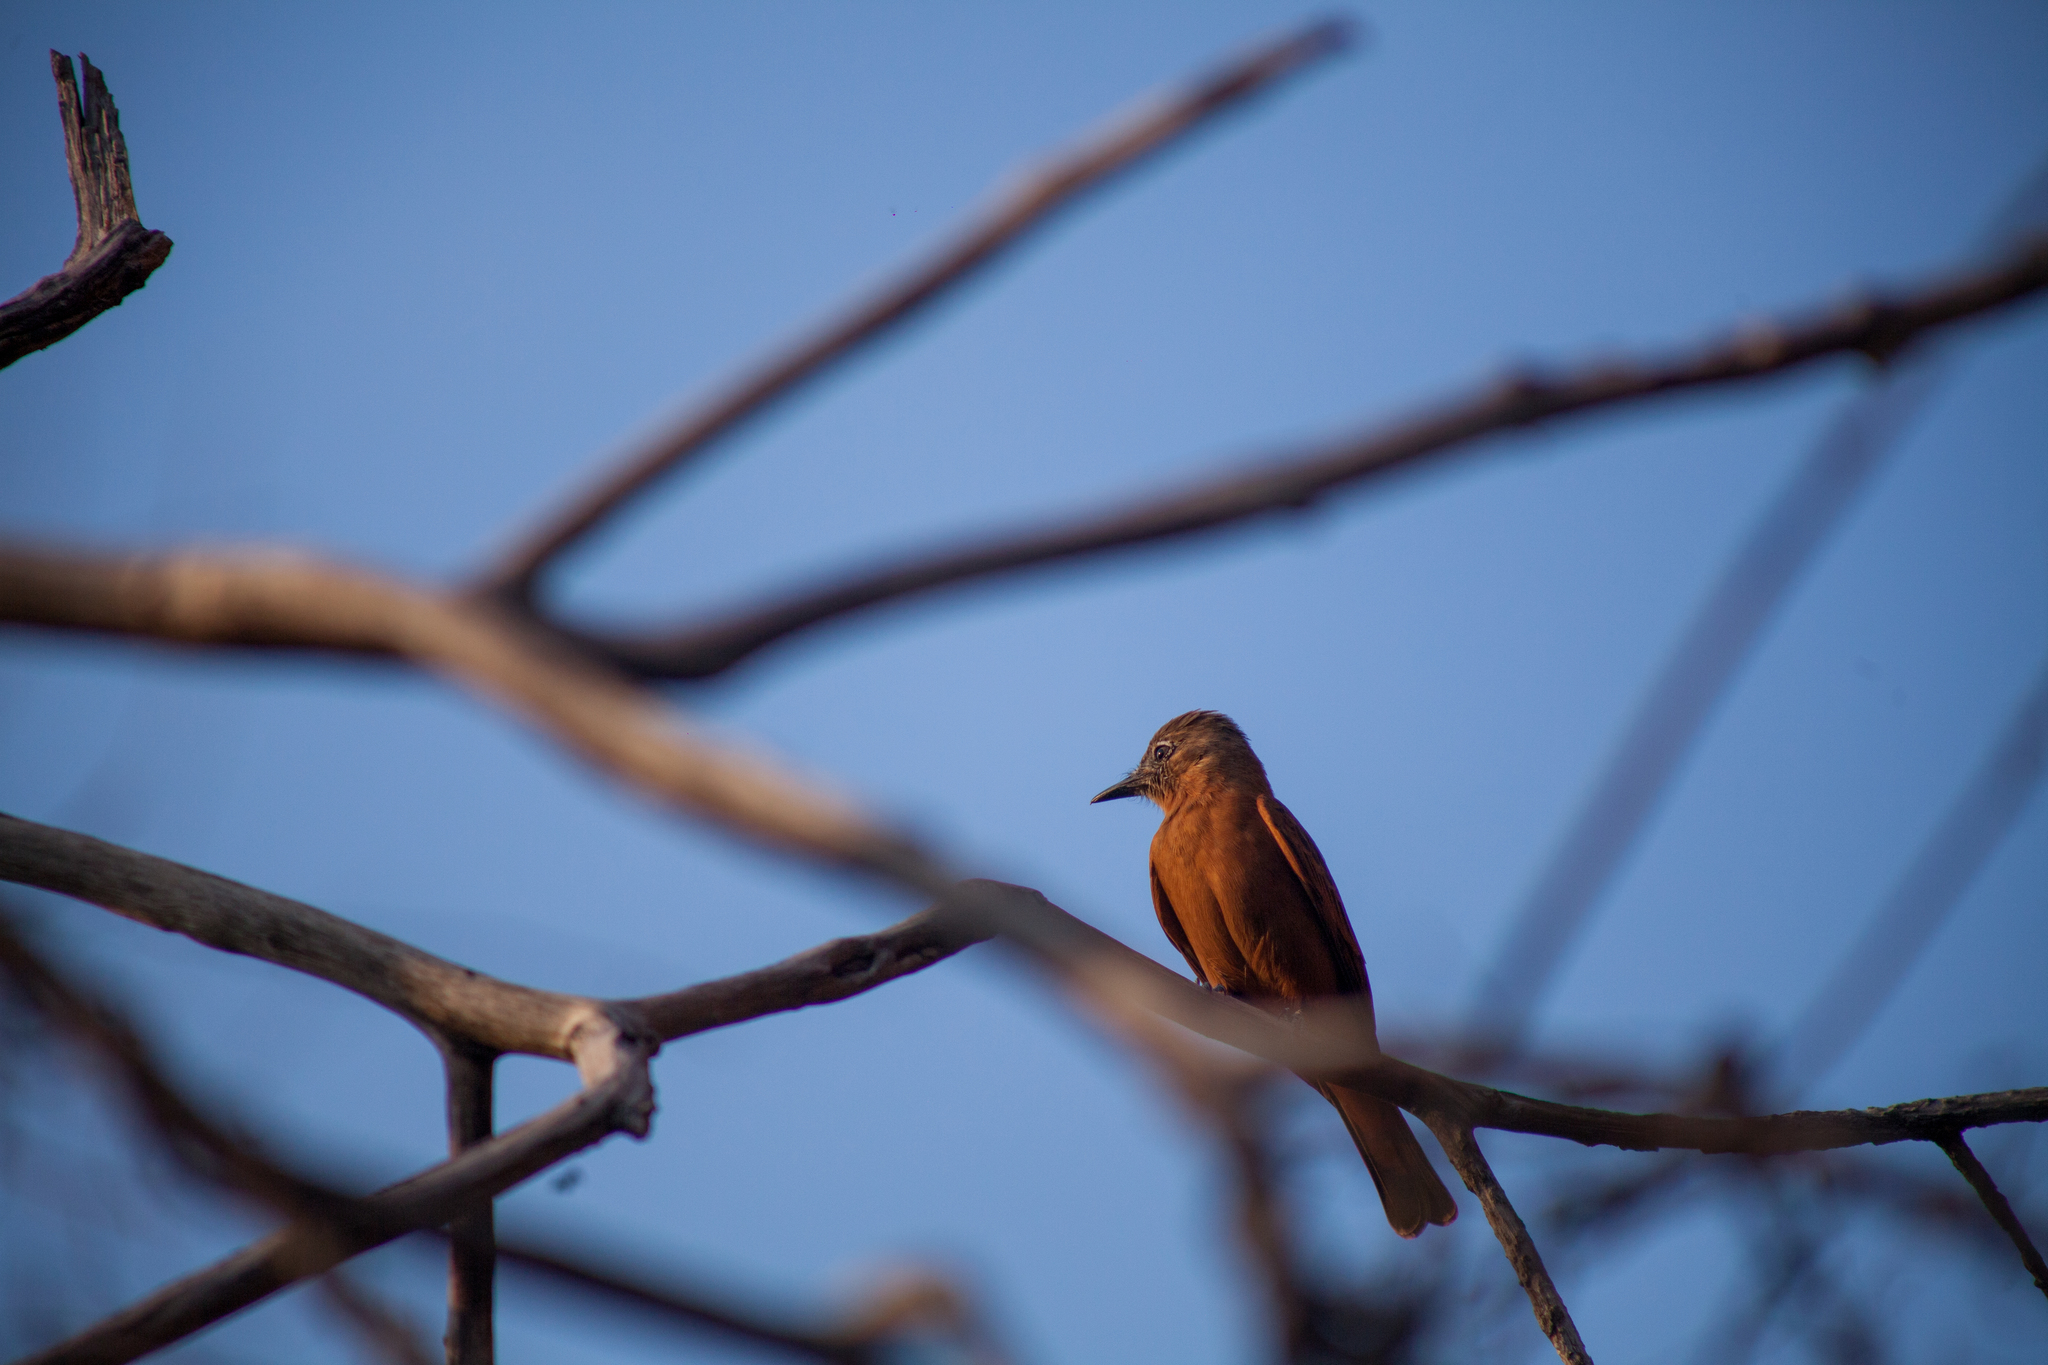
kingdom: Animalia
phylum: Chordata
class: Aves
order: Passeriformes
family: Tyrannidae
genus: Hirundinea
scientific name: Hirundinea ferruginea
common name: Cliff flycatcher
